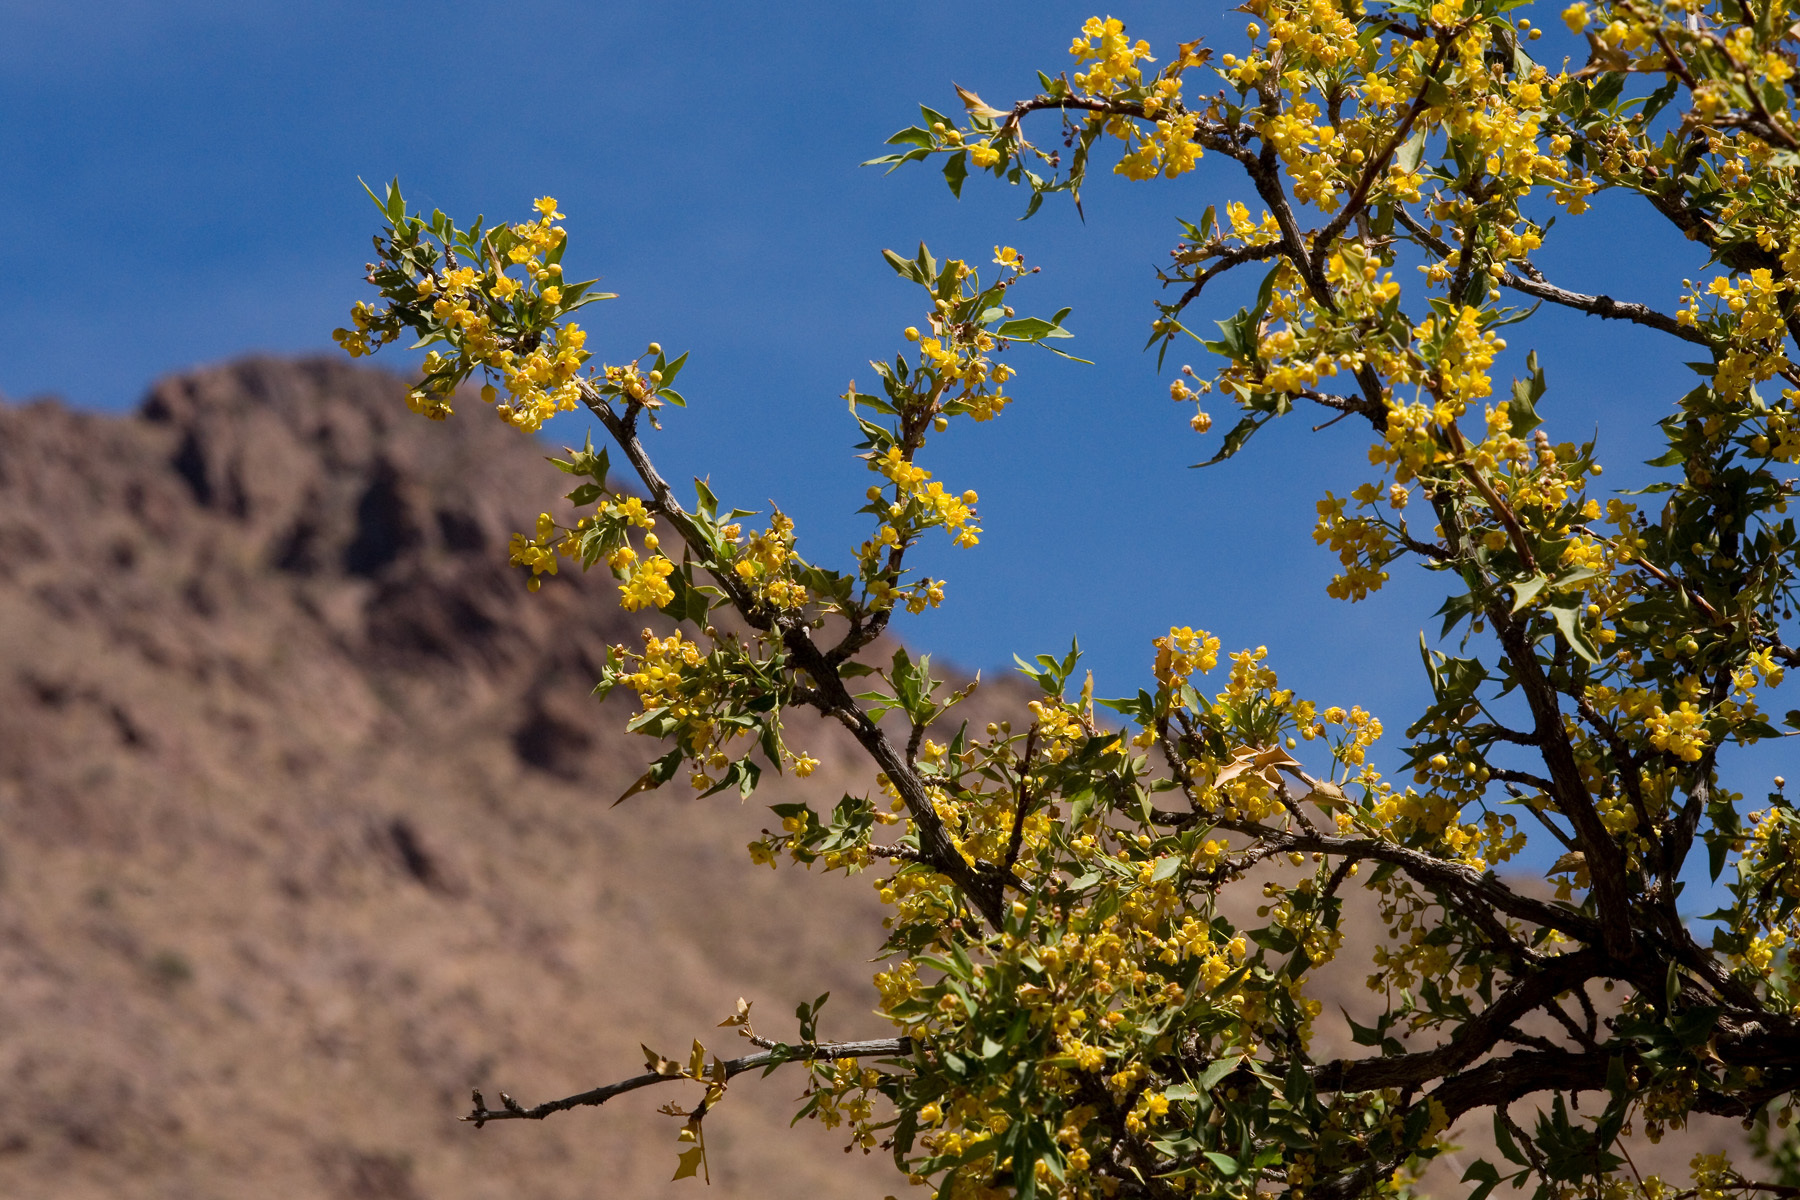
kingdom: Plantae
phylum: Tracheophyta
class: Magnoliopsida
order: Ranunculales
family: Berberidaceae
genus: Alloberberis
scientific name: Alloberberis haematocarpa
